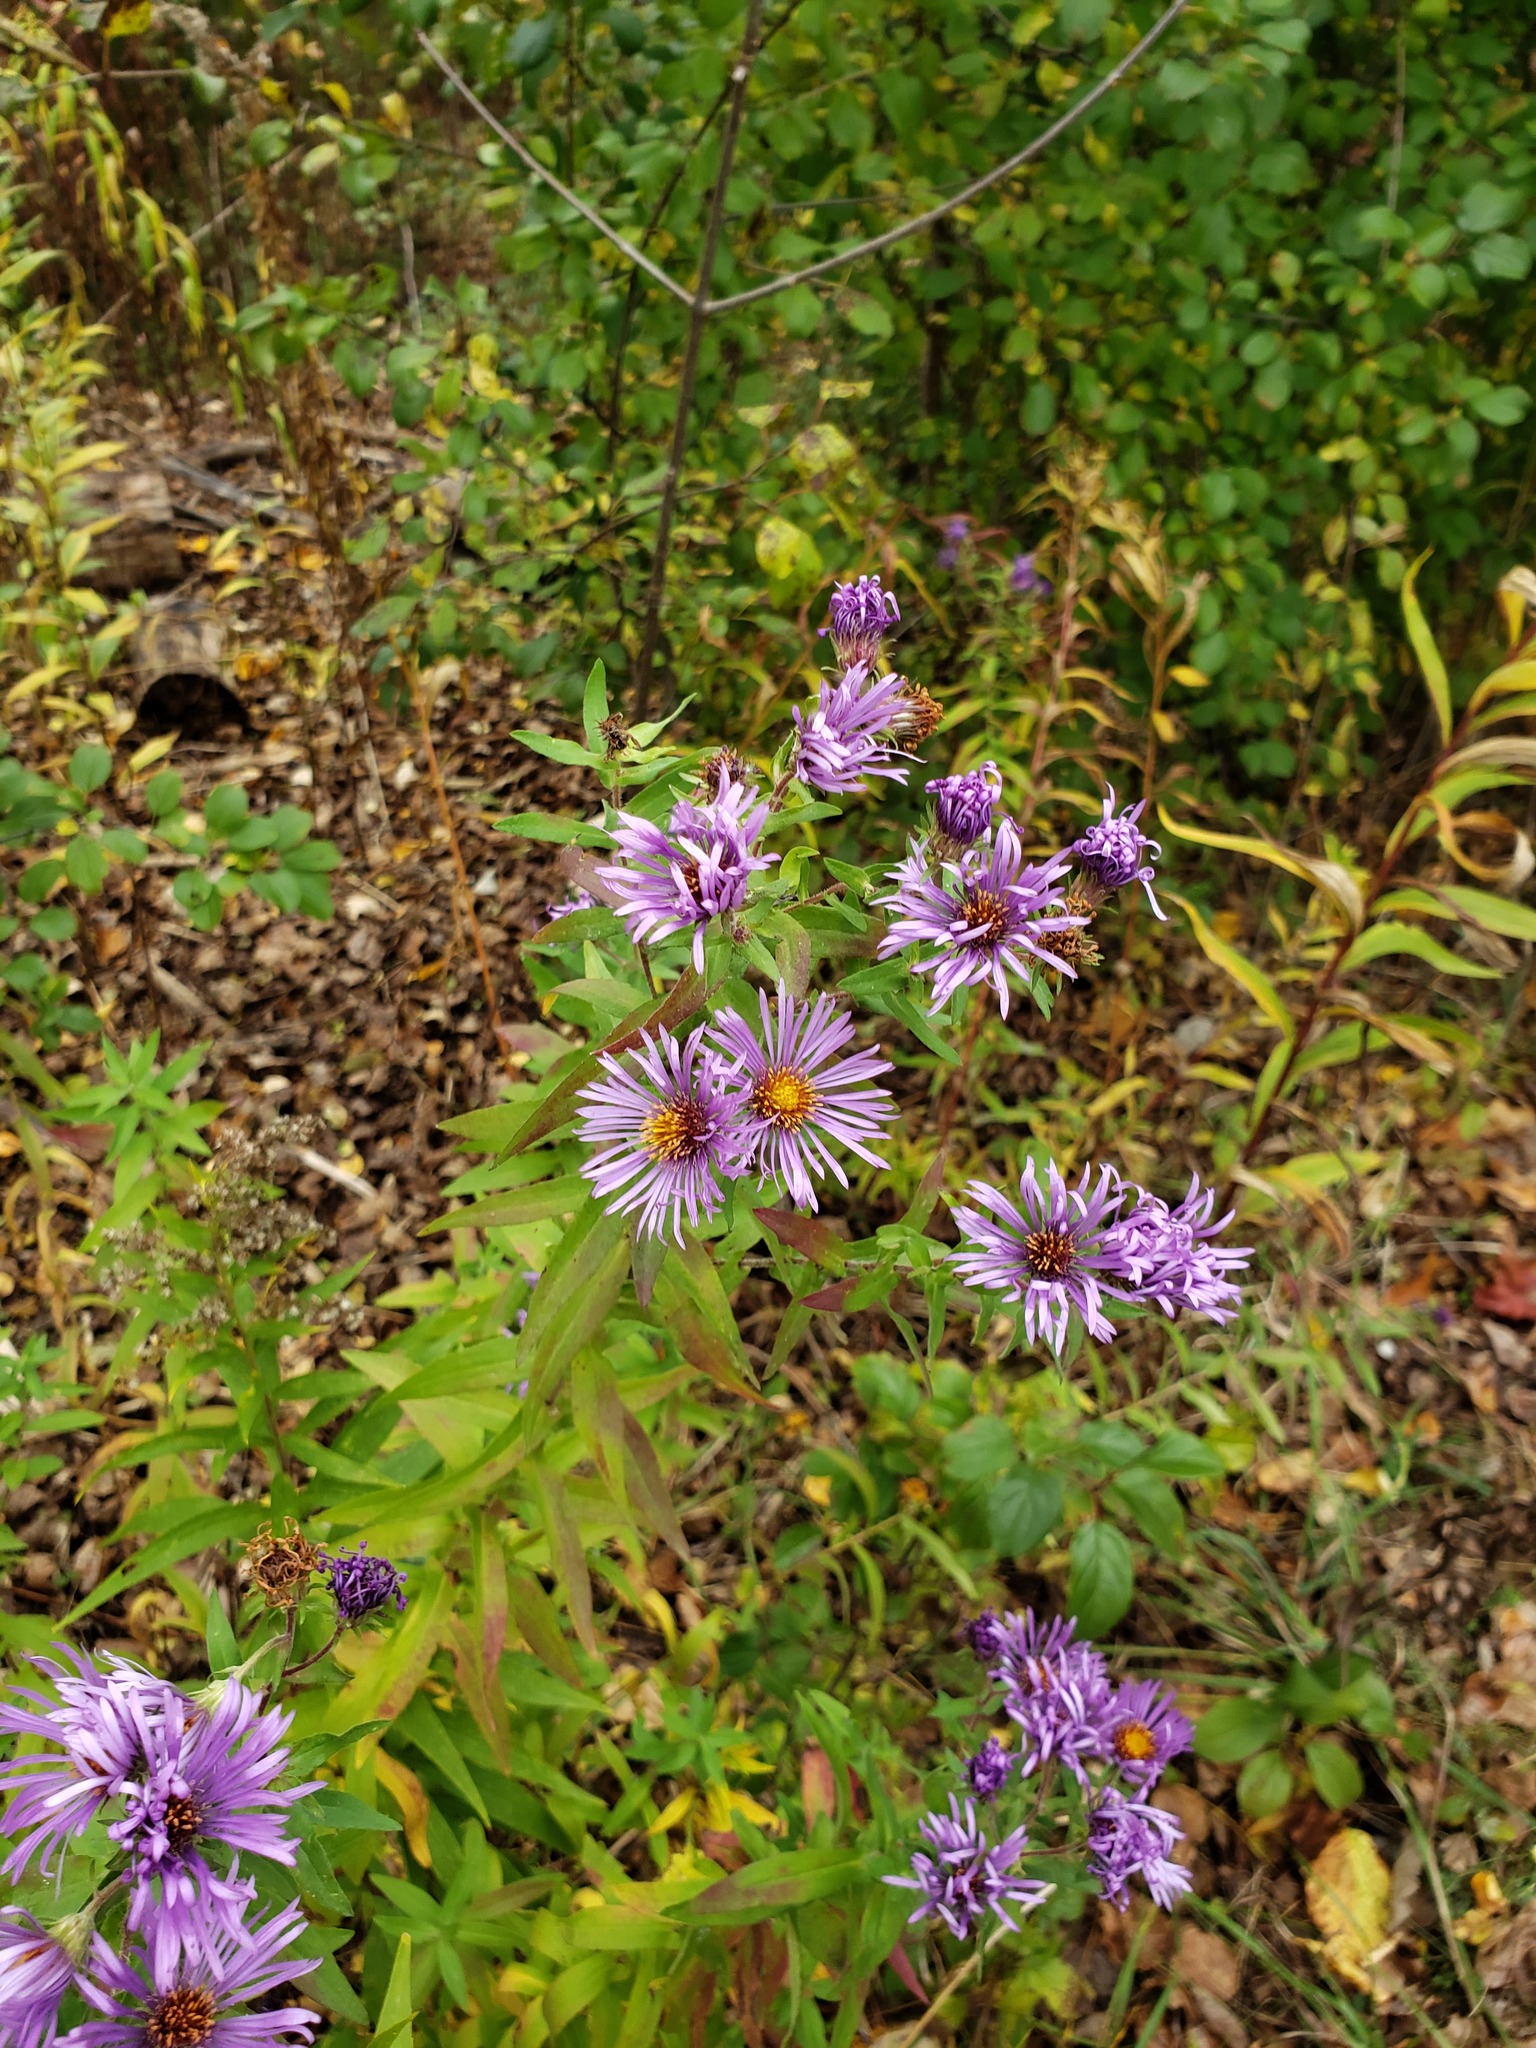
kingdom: Plantae
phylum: Tracheophyta
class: Magnoliopsida
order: Asterales
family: Asteraceae
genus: Symphyotrichum
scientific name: Symphyotrichum novae-angliae
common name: Michaelmas daisy
